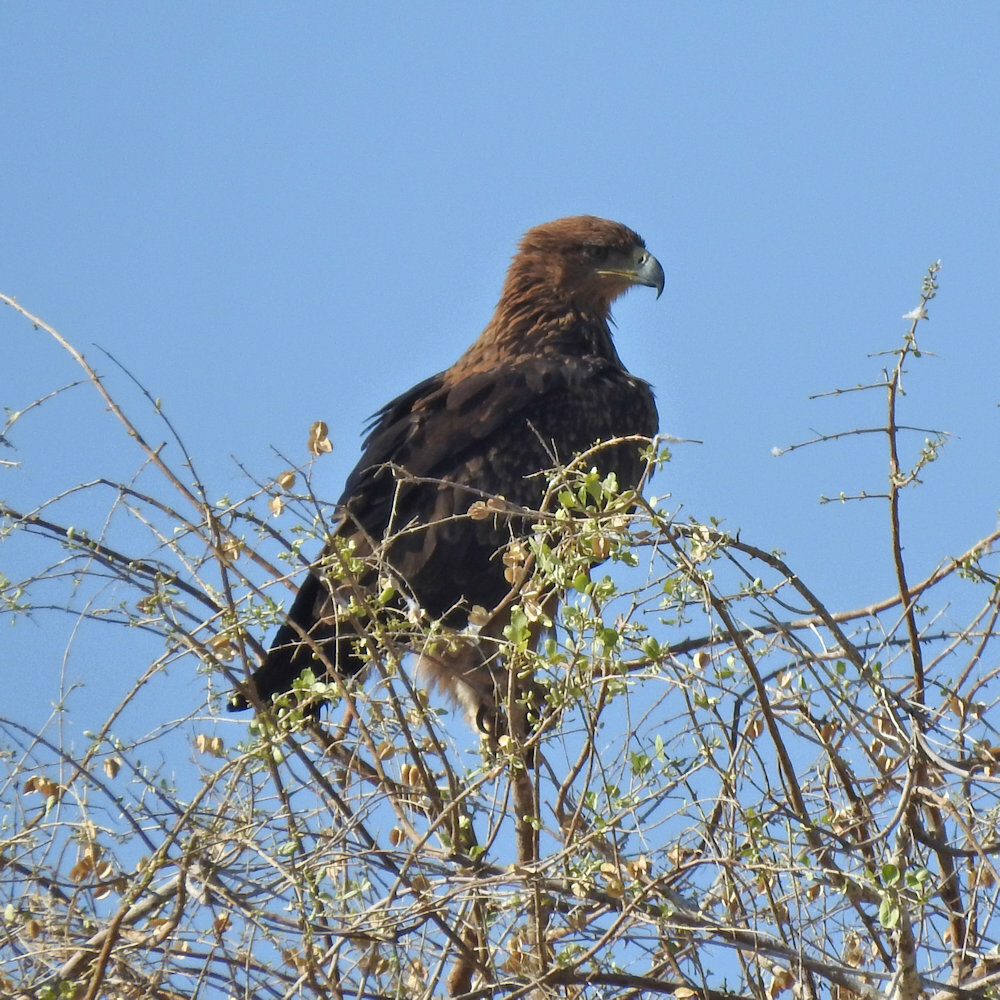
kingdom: Animalia
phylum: Chordata
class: Aves
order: Accipitriformes
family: Accipitridae
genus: Aquila
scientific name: Aquila rapax
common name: Tawny eagle
